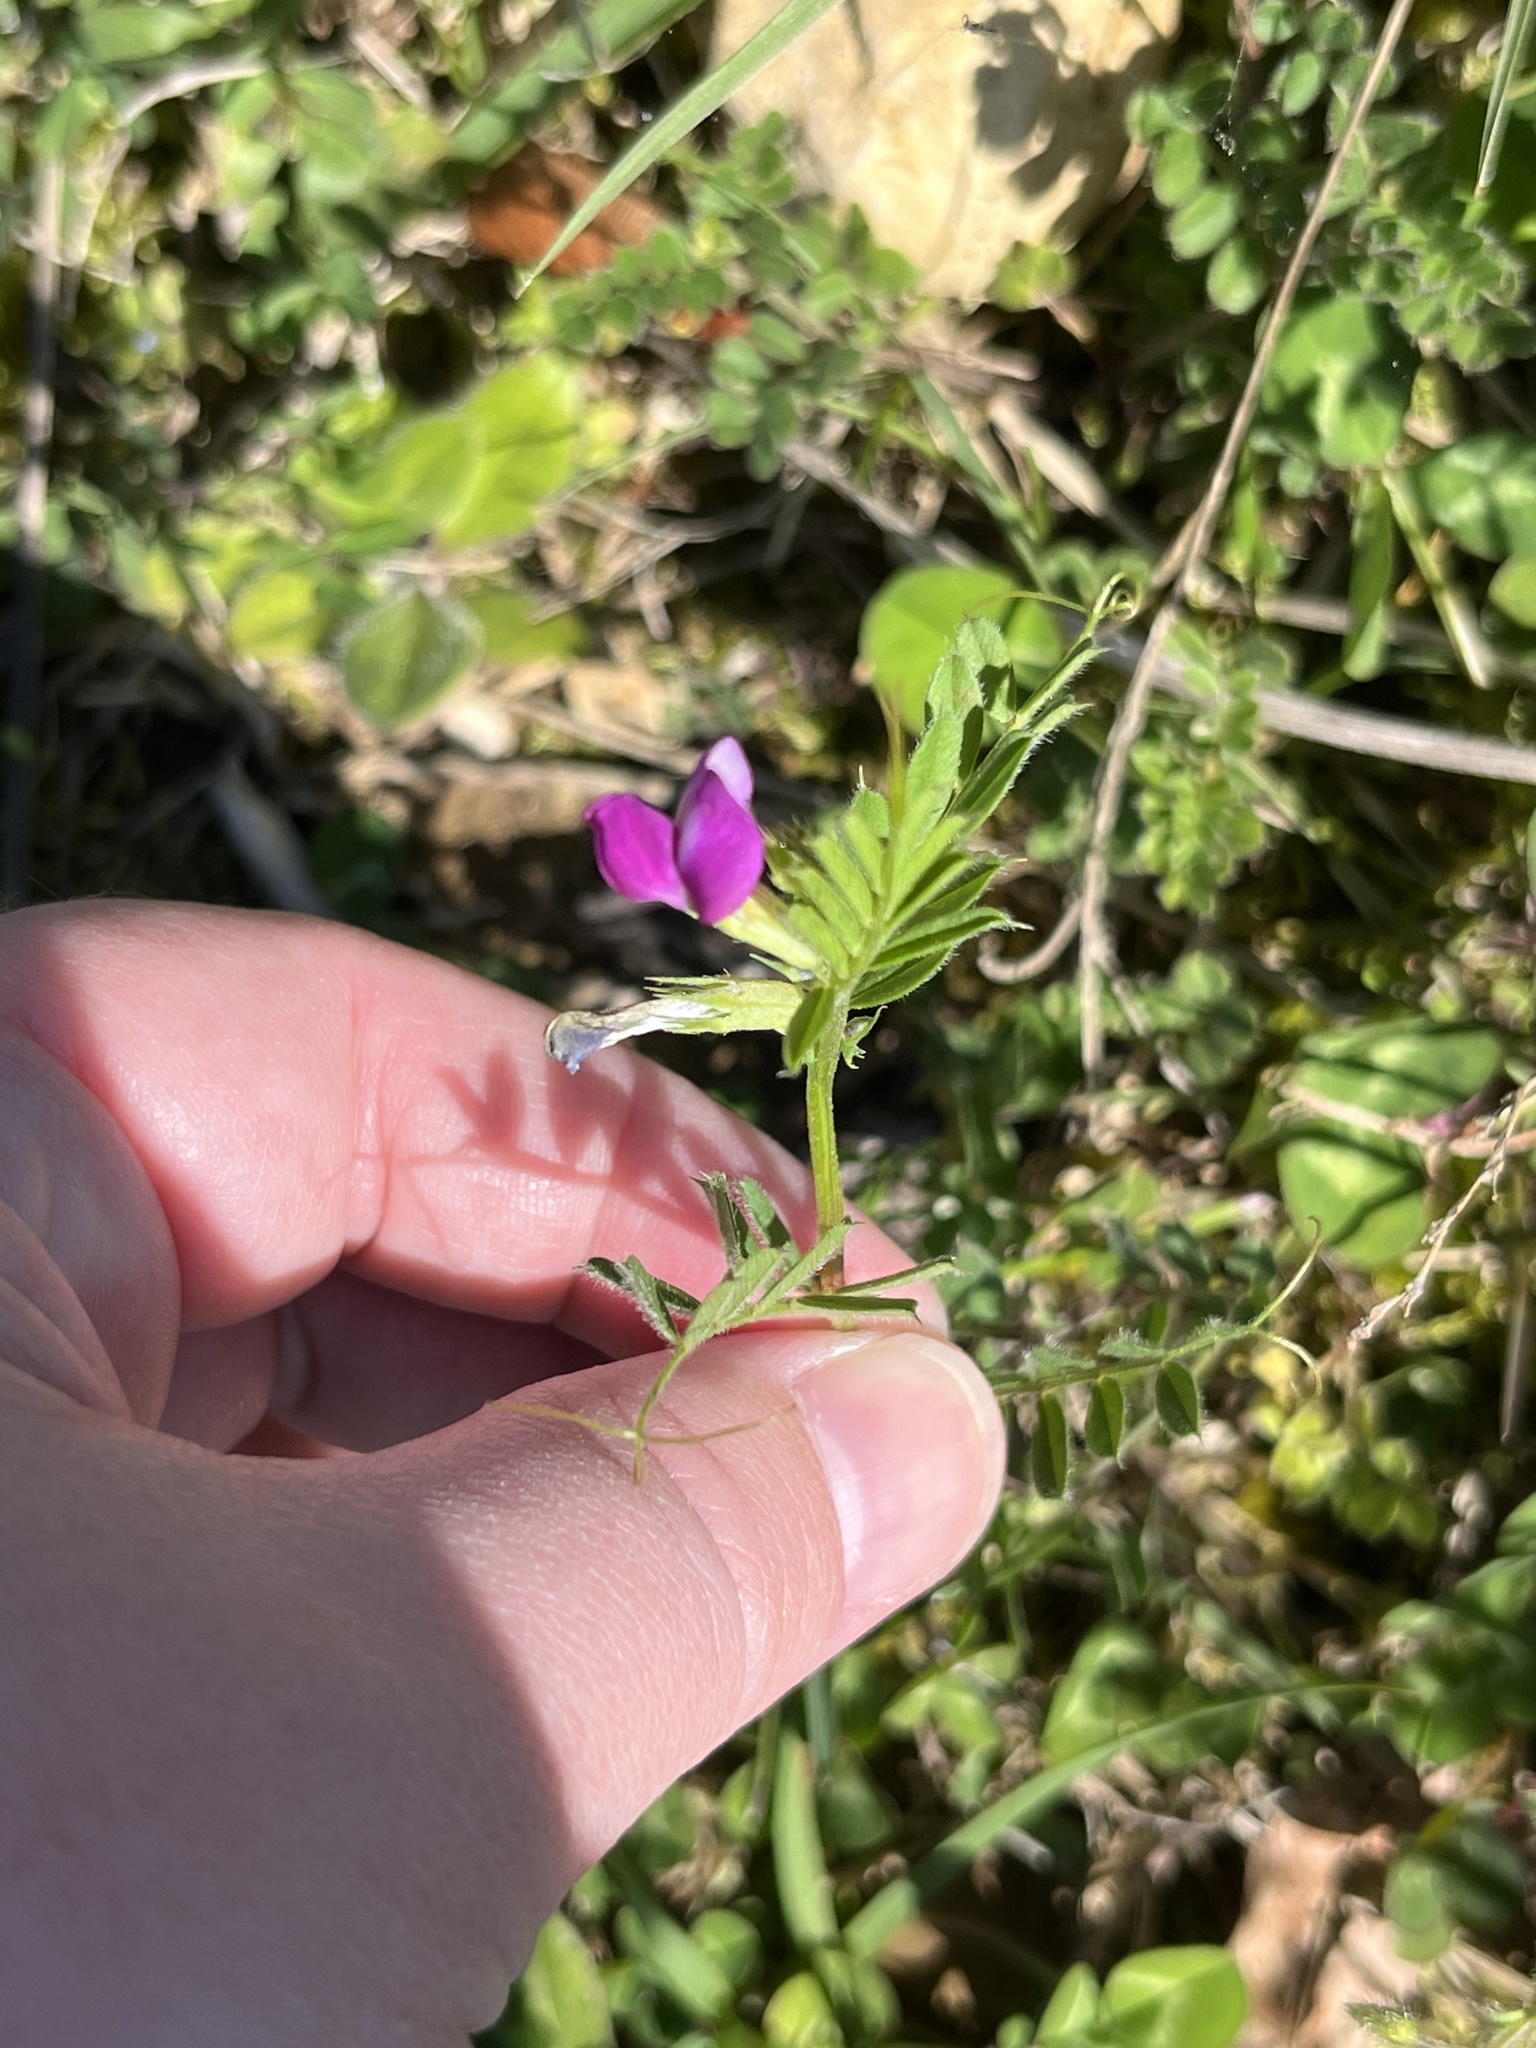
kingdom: Plantae
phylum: Tracheophyta
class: Magnoliopsida
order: Fabales
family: Fabaceae
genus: Vicia
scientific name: Vicia sativa
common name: Garden vetch
